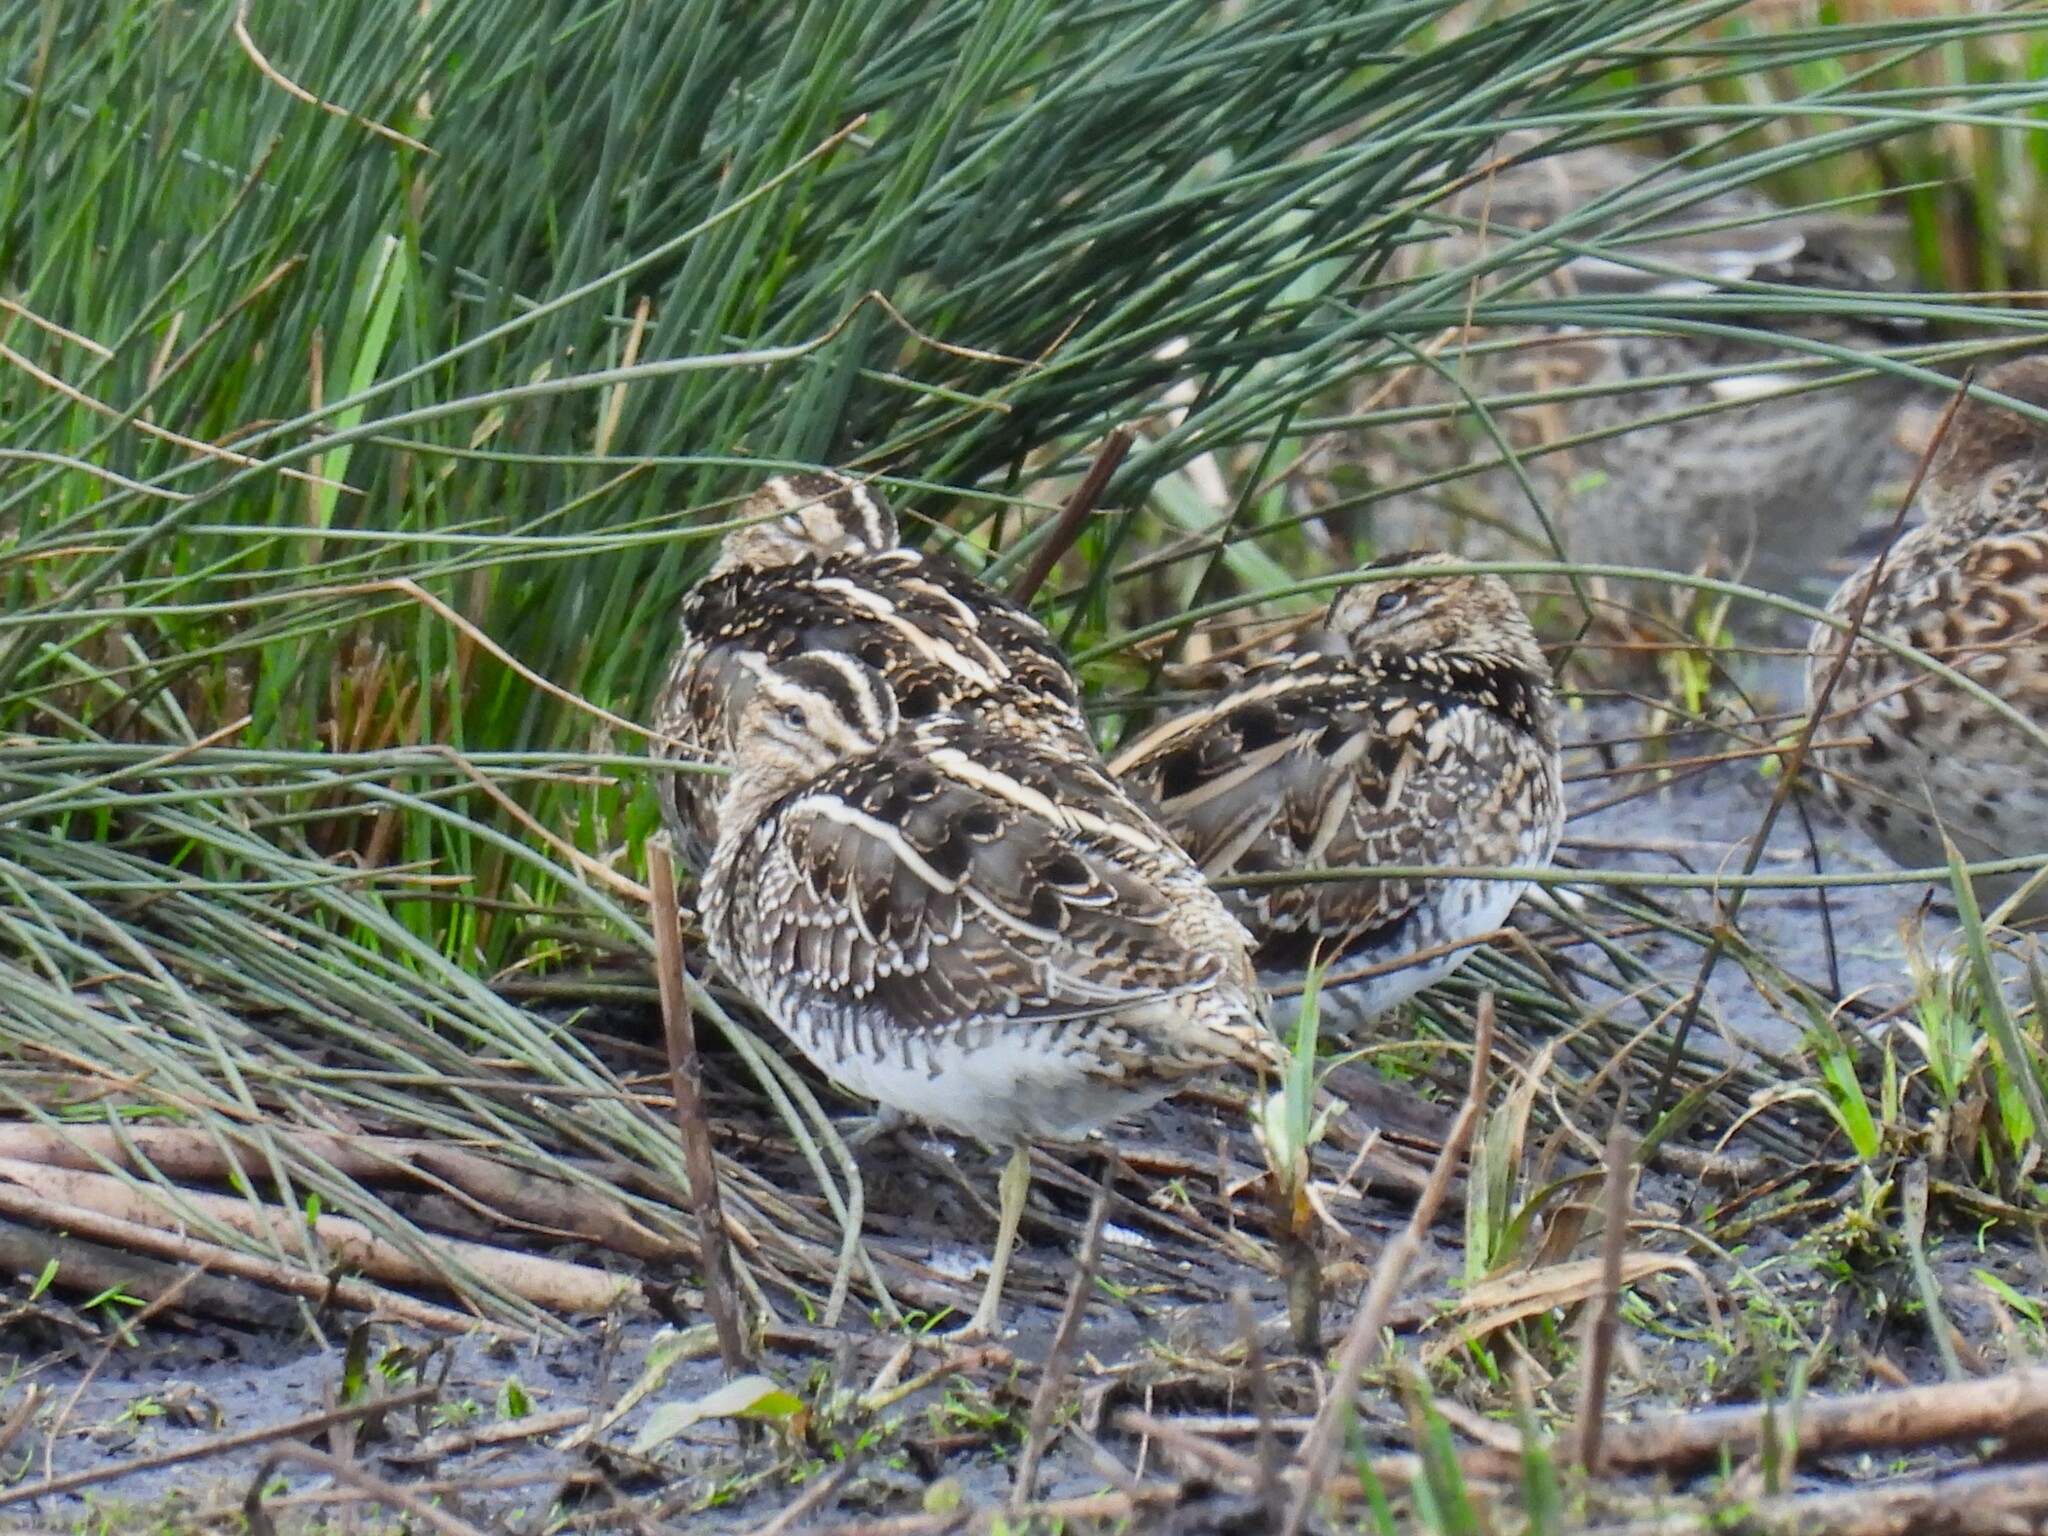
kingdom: Animalia
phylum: Chordata
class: Aves
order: Charadriiformes
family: Scolopacidae
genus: Gallinago
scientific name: Gallinago gallinago
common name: Common snipe
